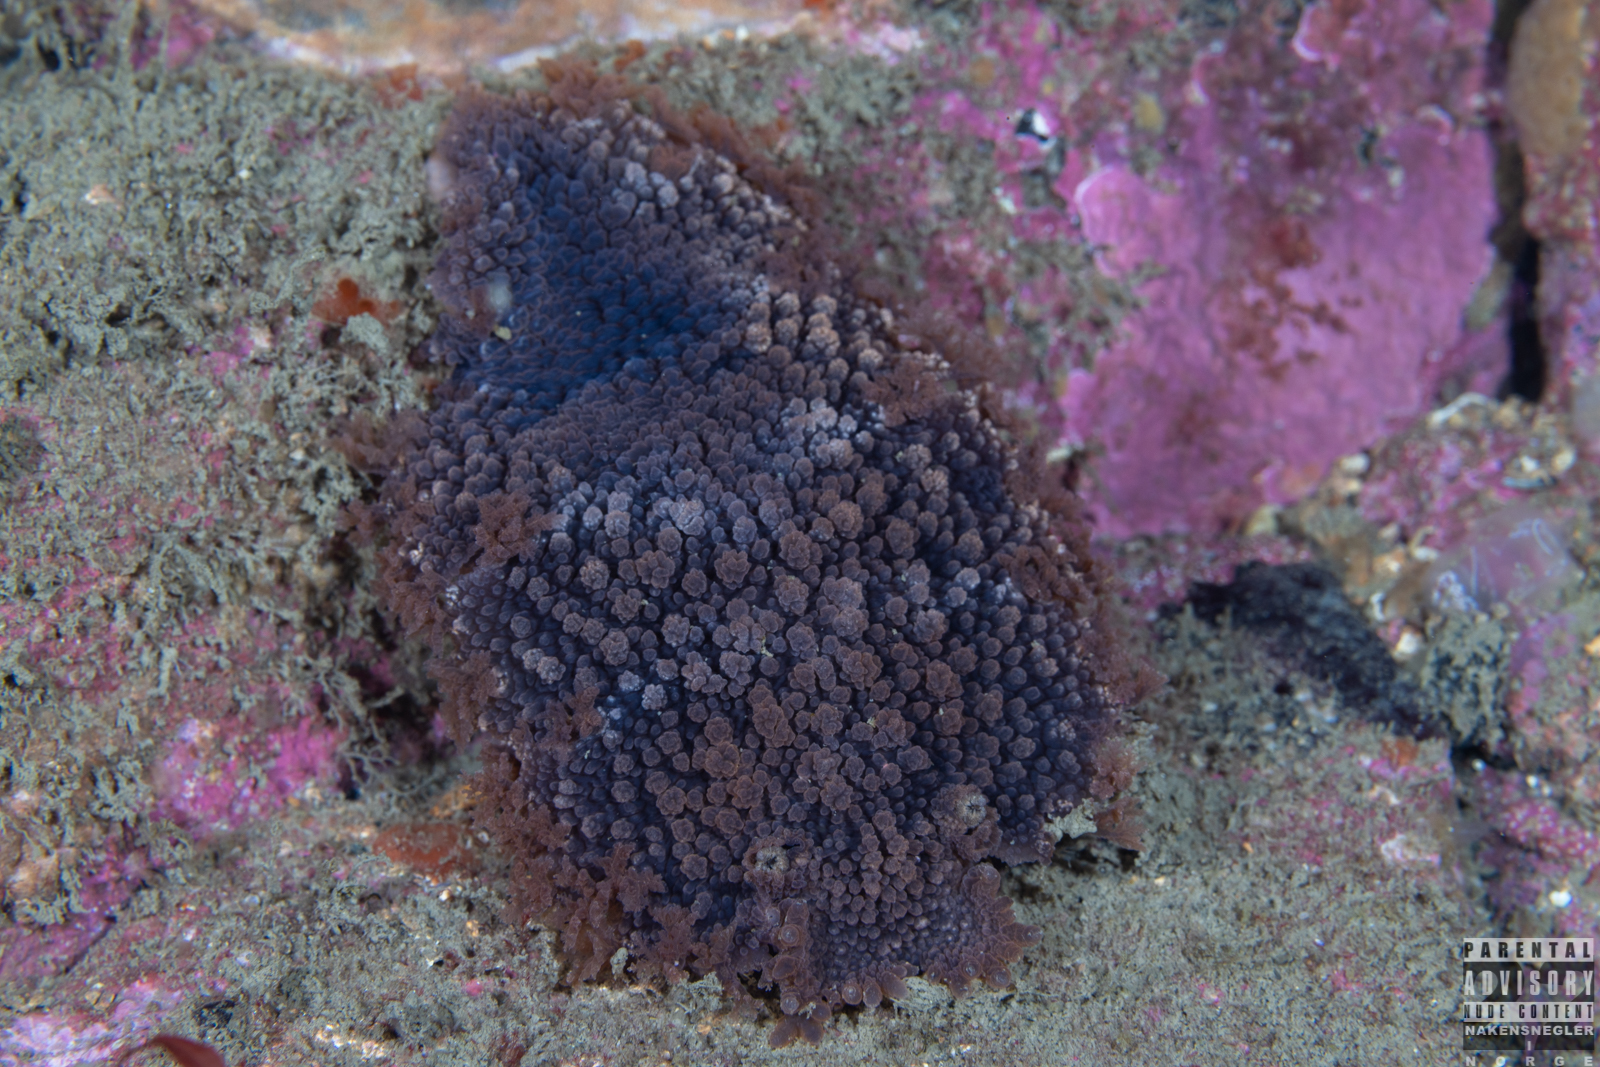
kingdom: Animalia
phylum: Mollusca
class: Gastropoda
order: Nudibranchia
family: Tritoniidae
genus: Tritonia
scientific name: Tritonia hombergii
